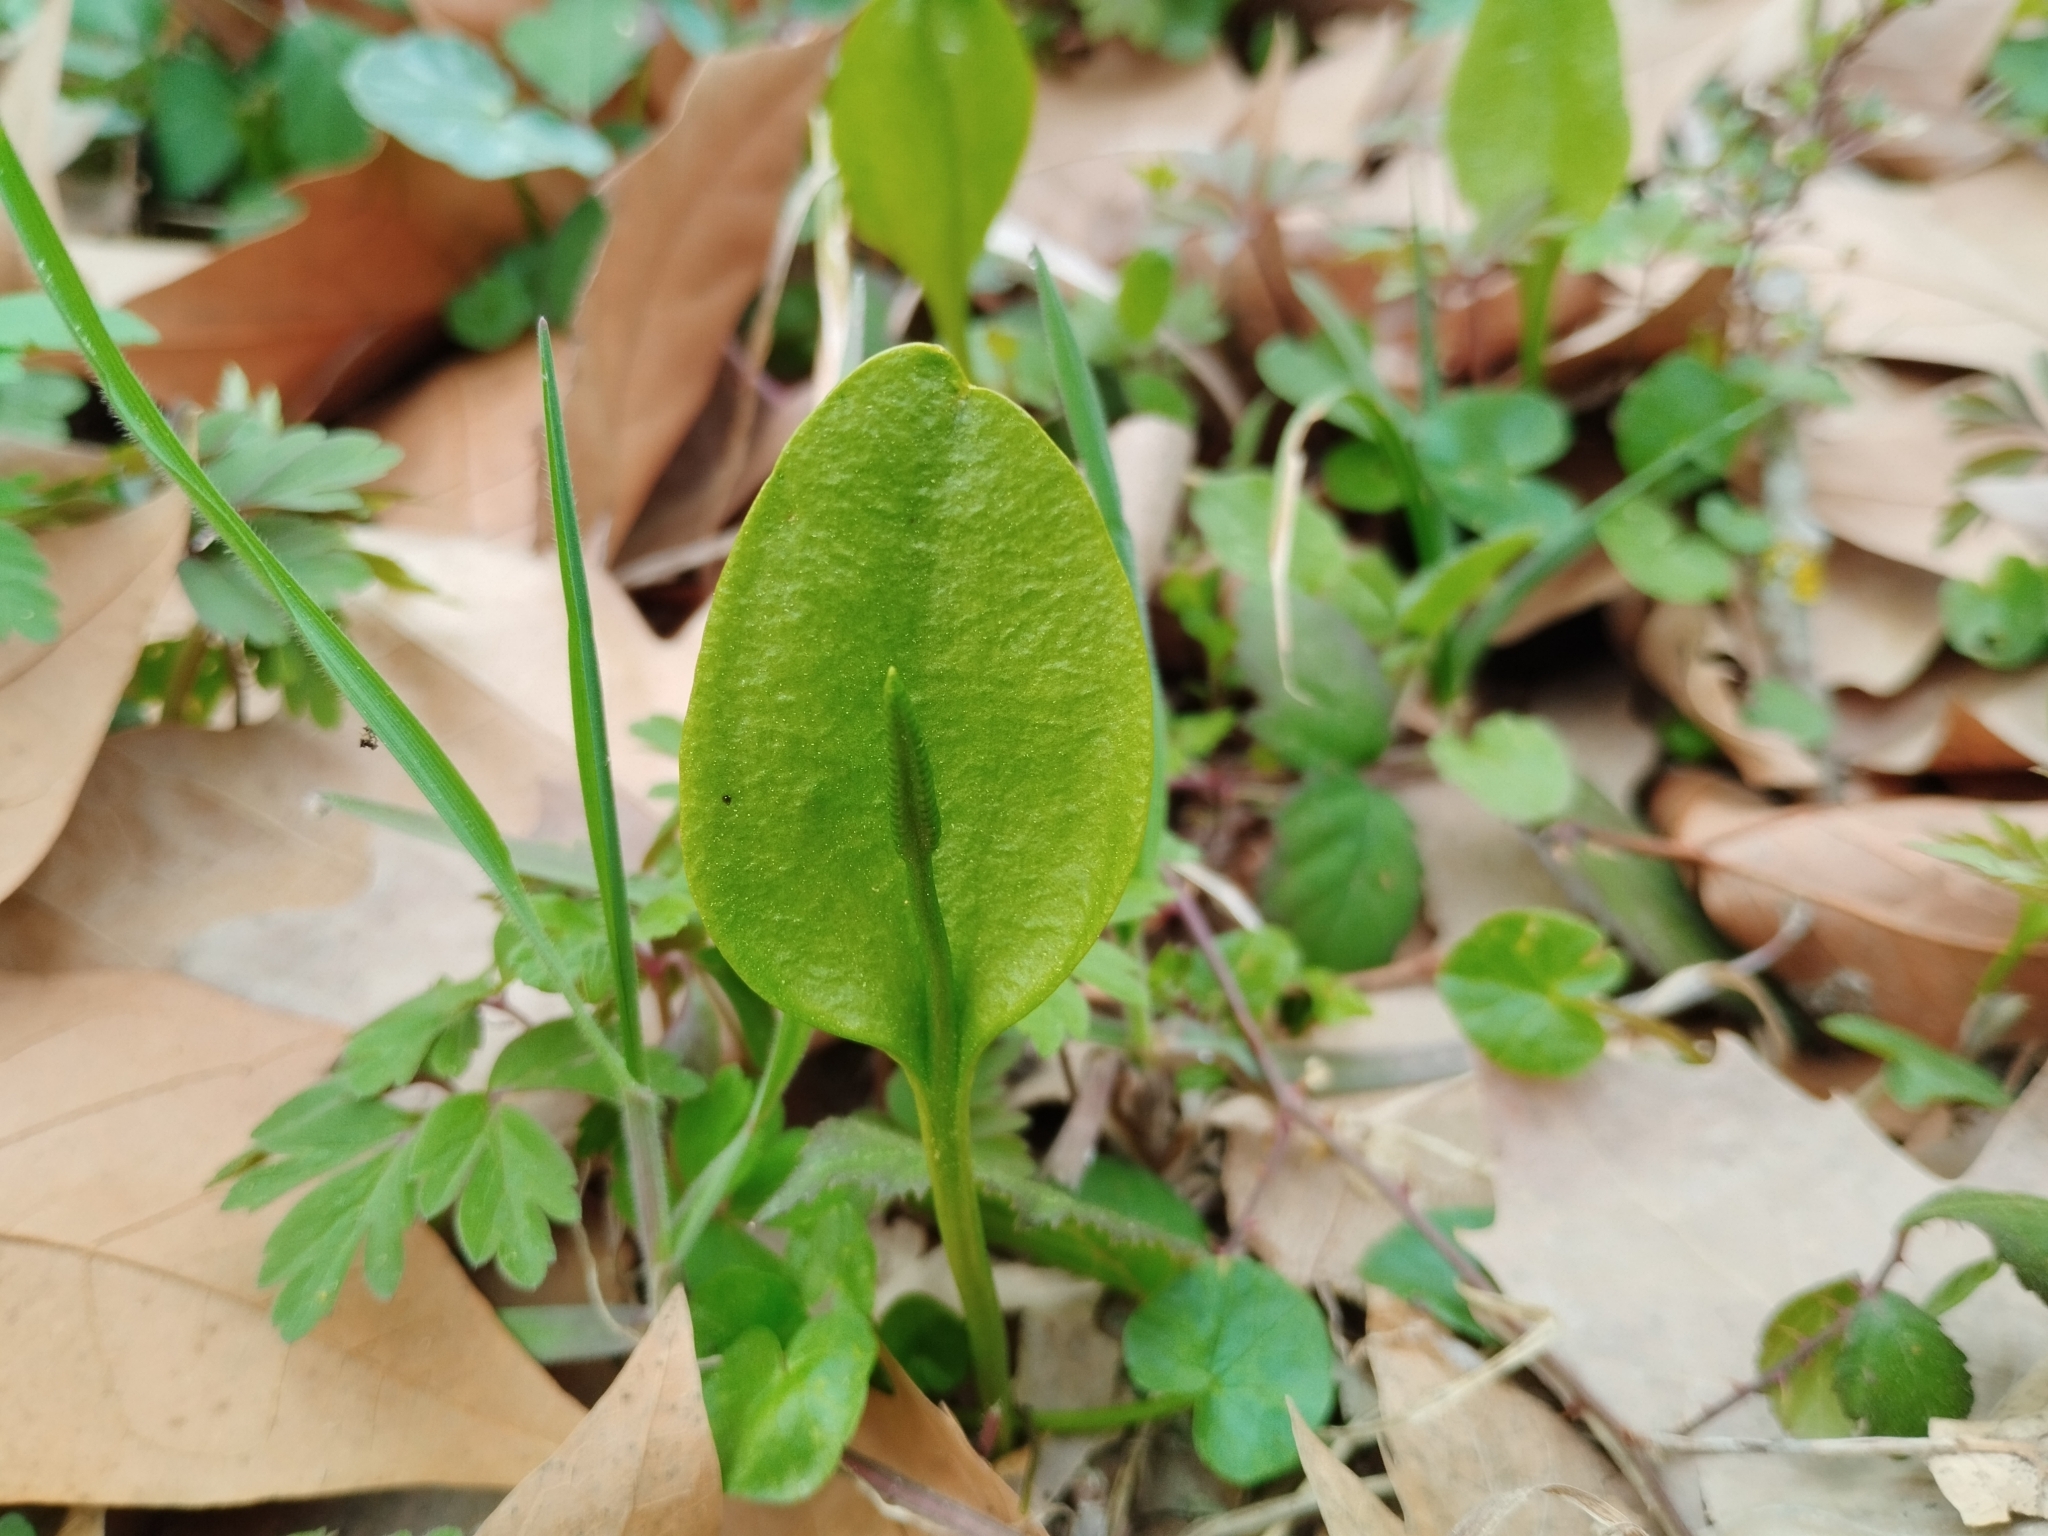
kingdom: Plantae
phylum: Tracheophyta
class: Polypodiopsida
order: Ophioglossales
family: Ophioglossaceae
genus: Ophioglossum
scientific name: Ophioglossum vulgatum
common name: Adder's-tongue
